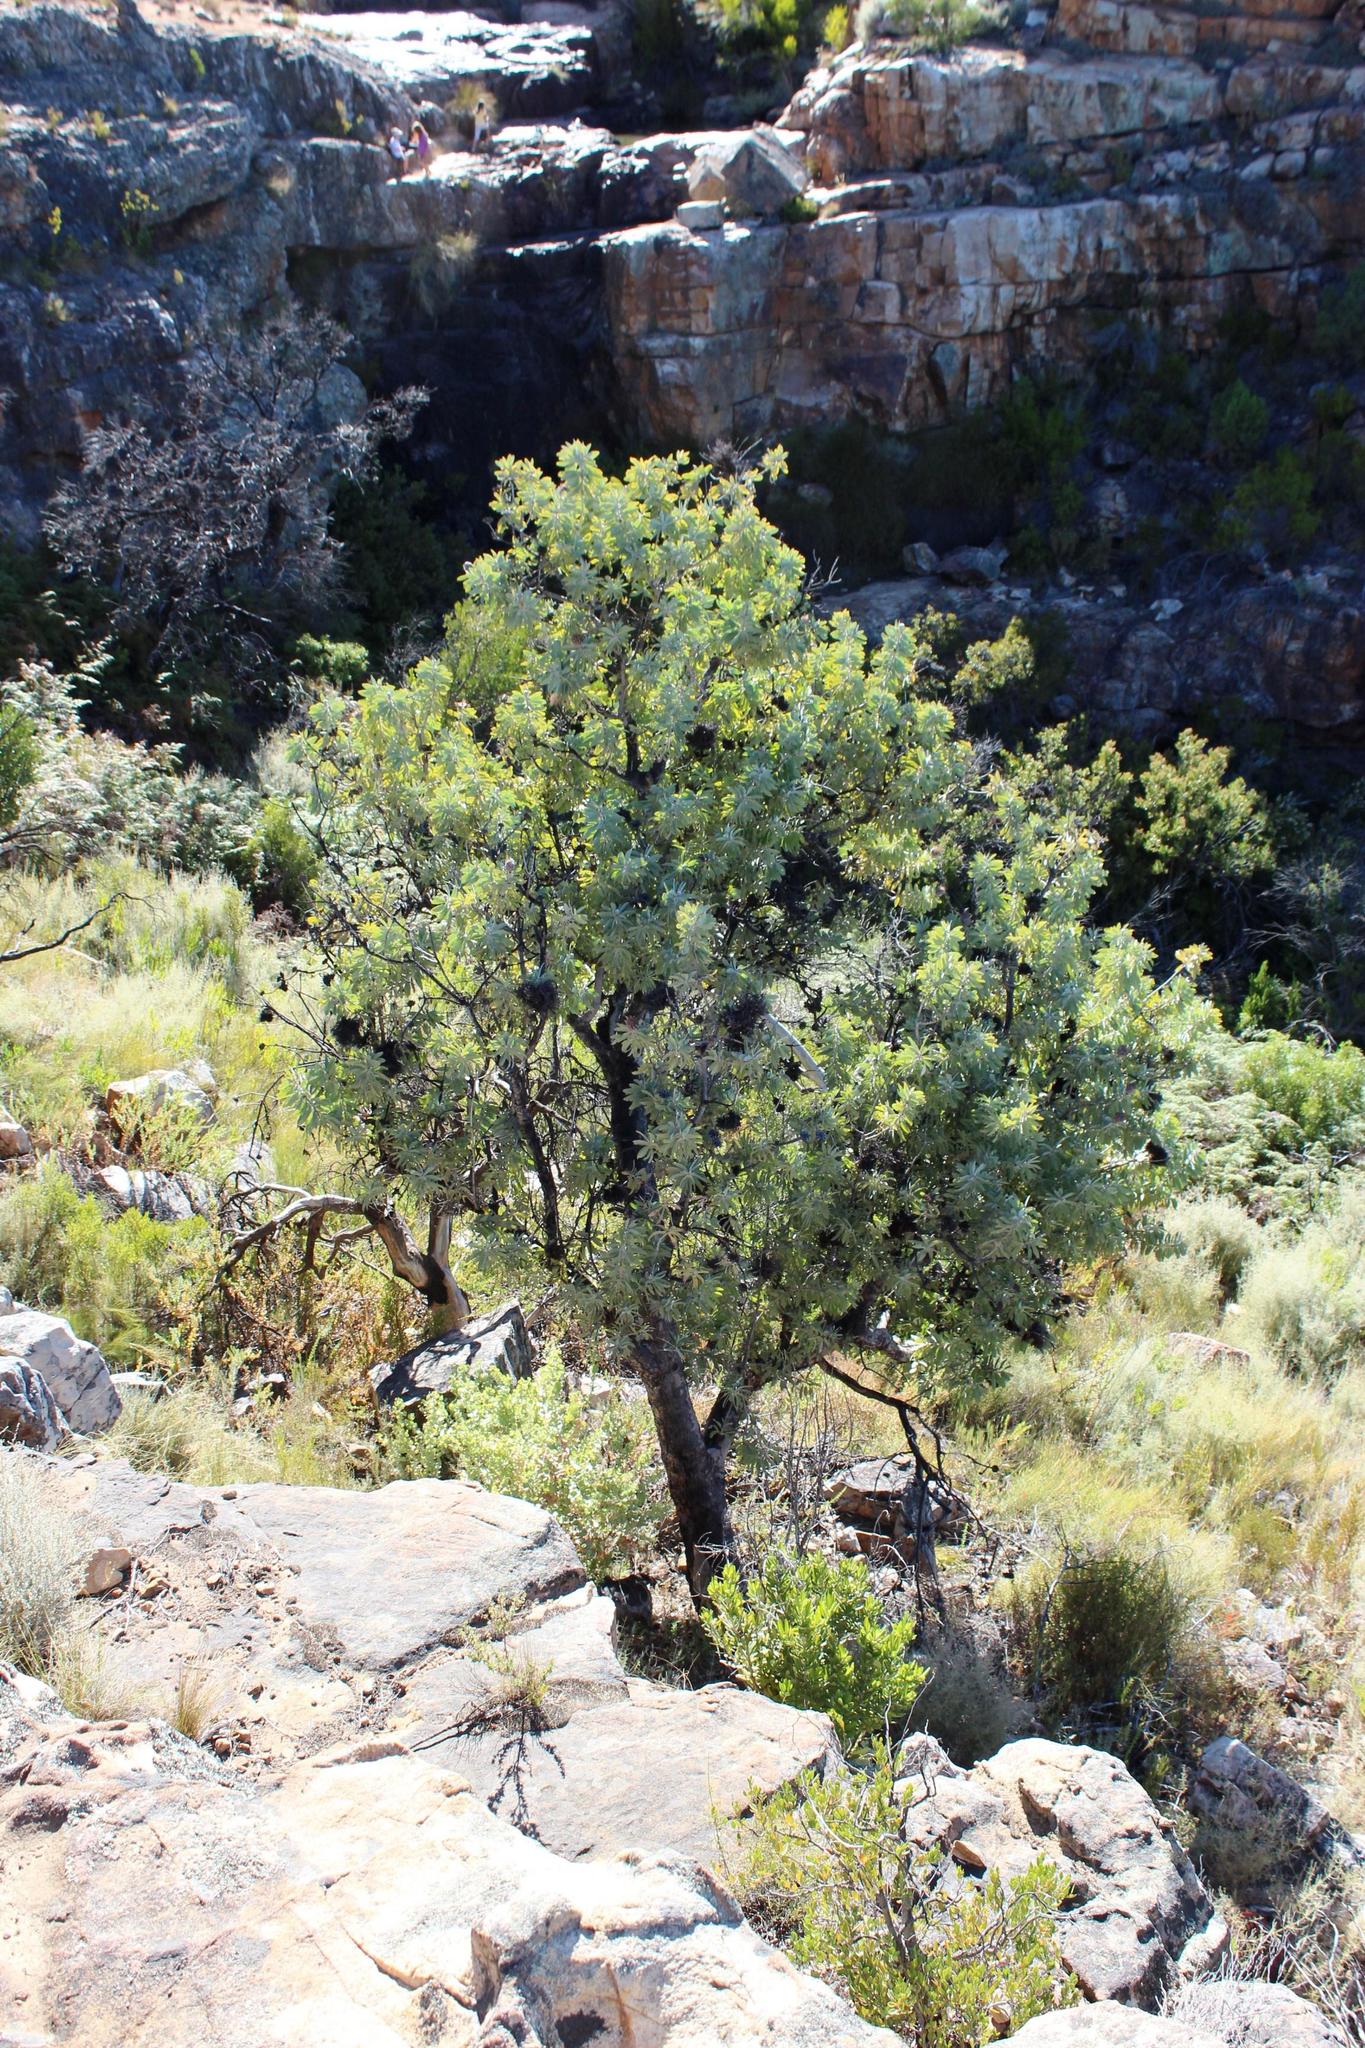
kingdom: Plantae
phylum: Tracheophyta
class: Magnoliopsida
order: Proteales
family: Proteaceae
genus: Protea
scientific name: Protea nitida
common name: Tree protea
